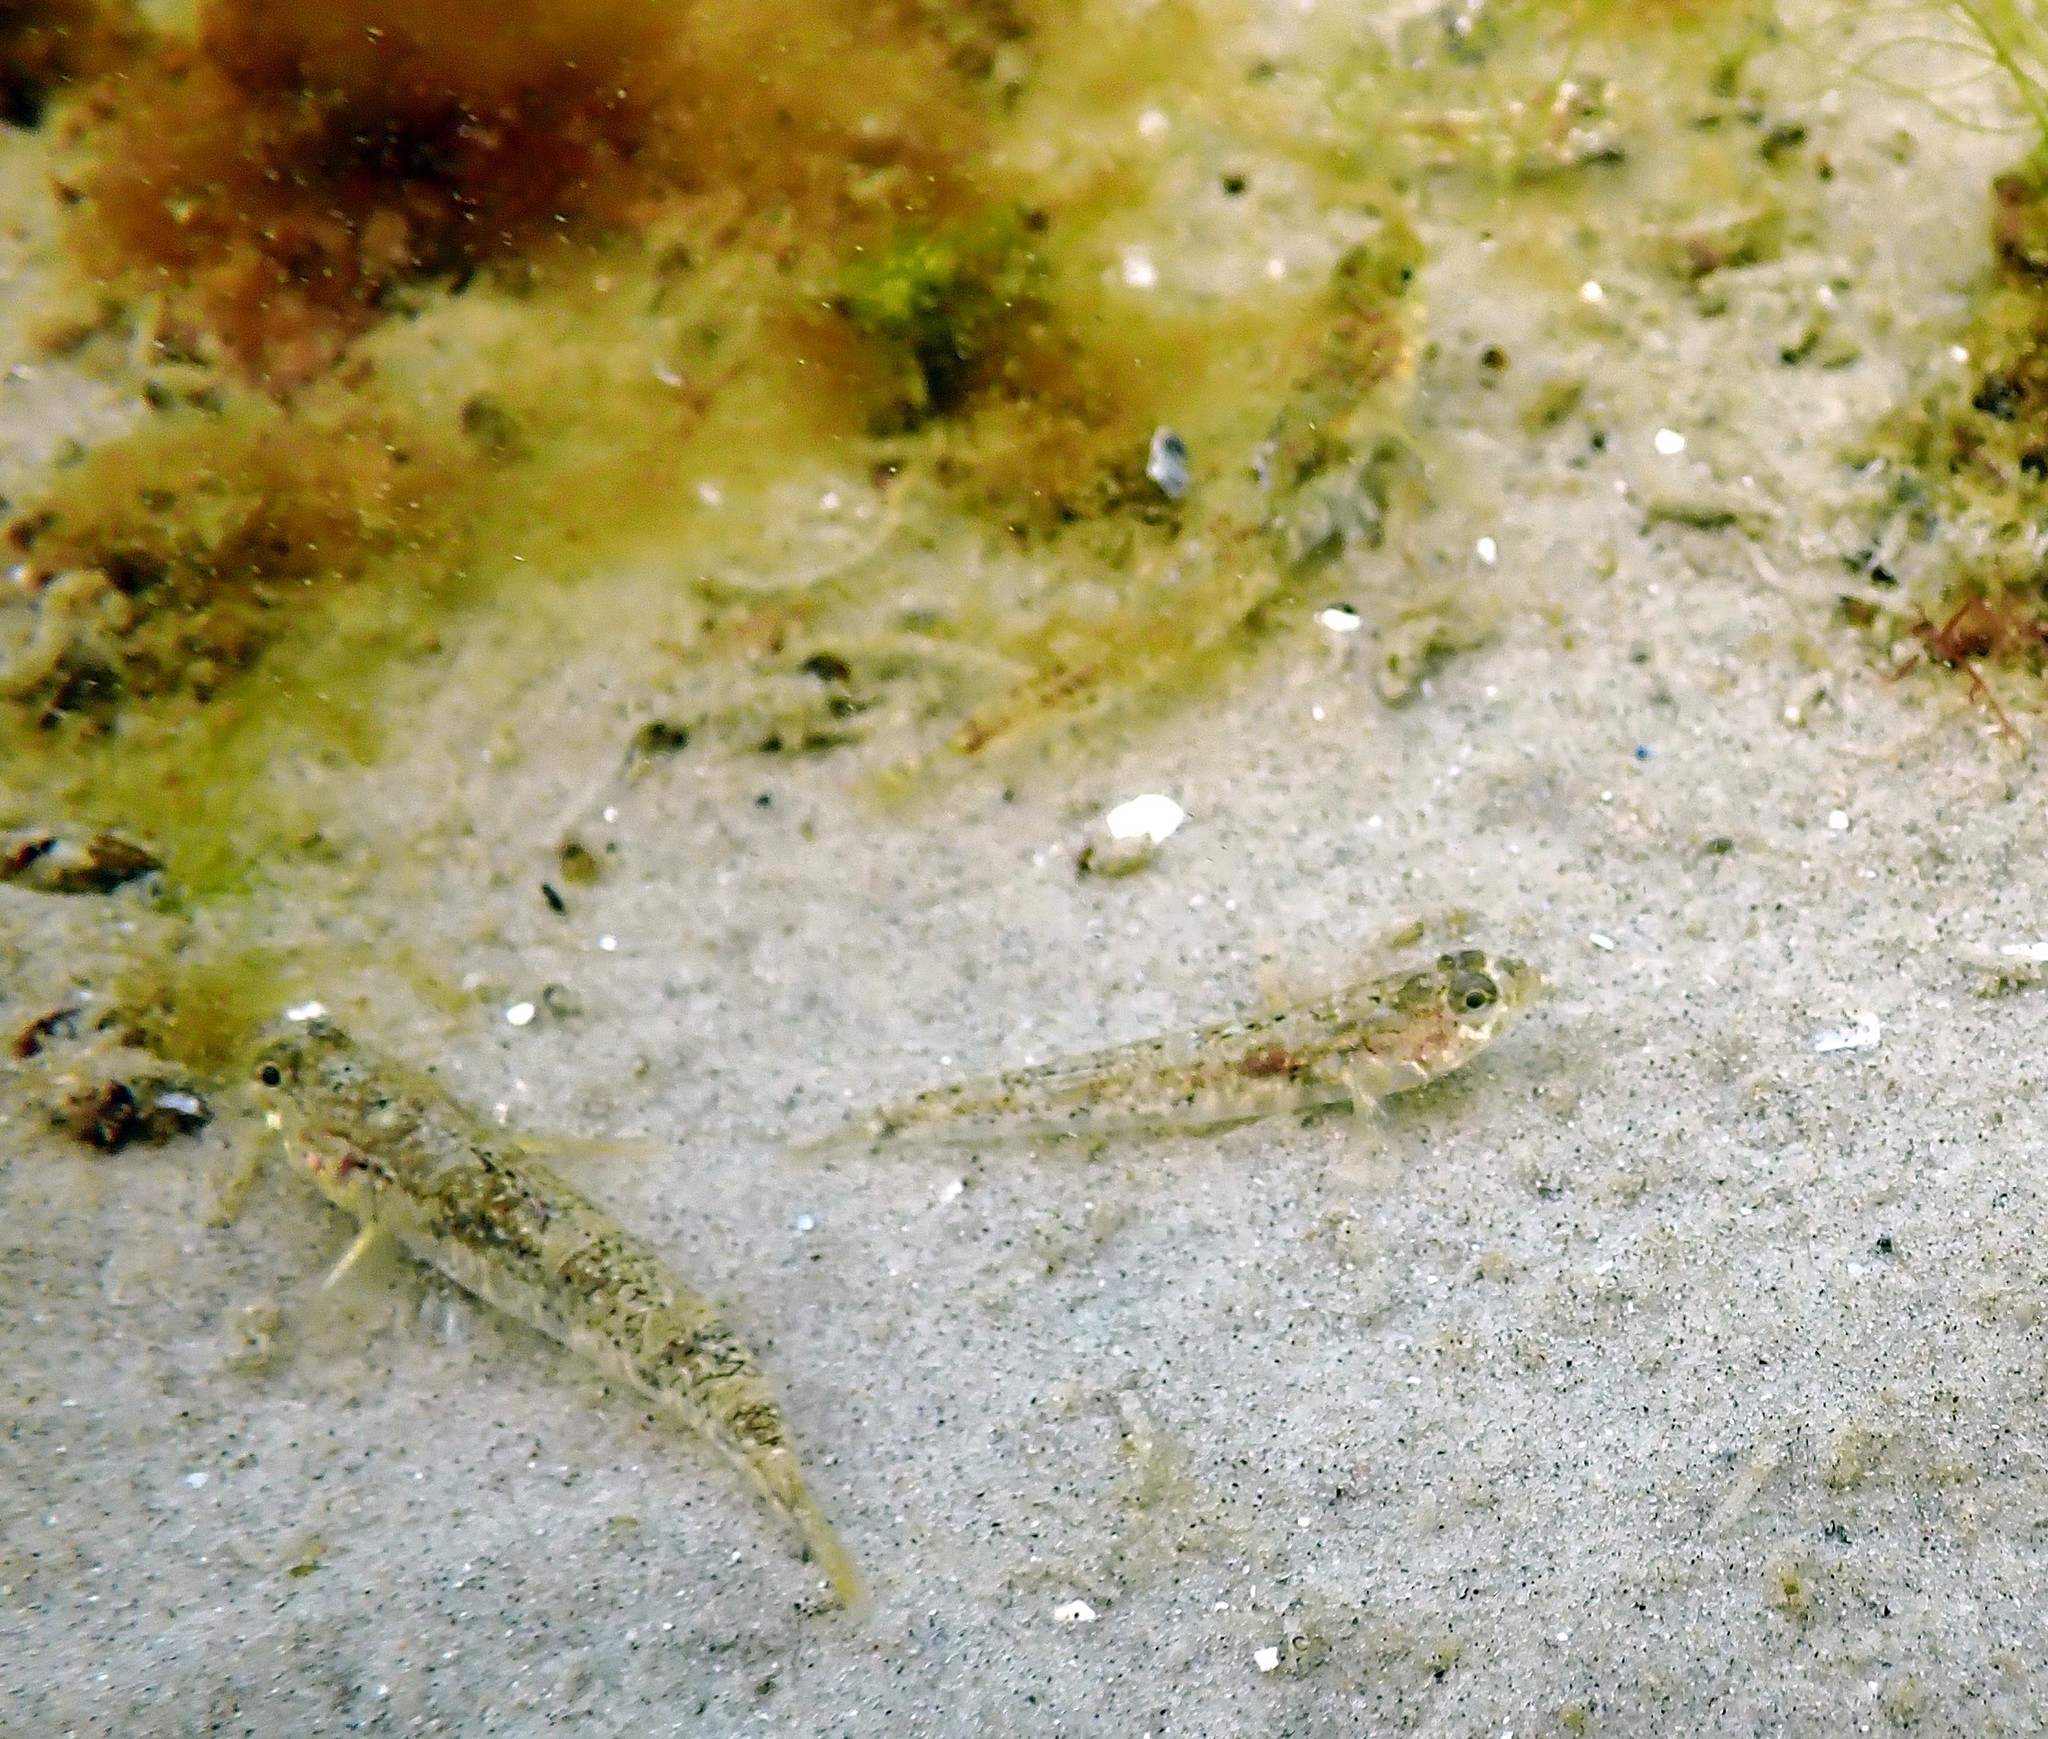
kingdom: Animalia
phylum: Chordata
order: Perciformes
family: Gobiidae
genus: Pomatoschistus
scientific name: Pomatoschistus pictus
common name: Painted goby
